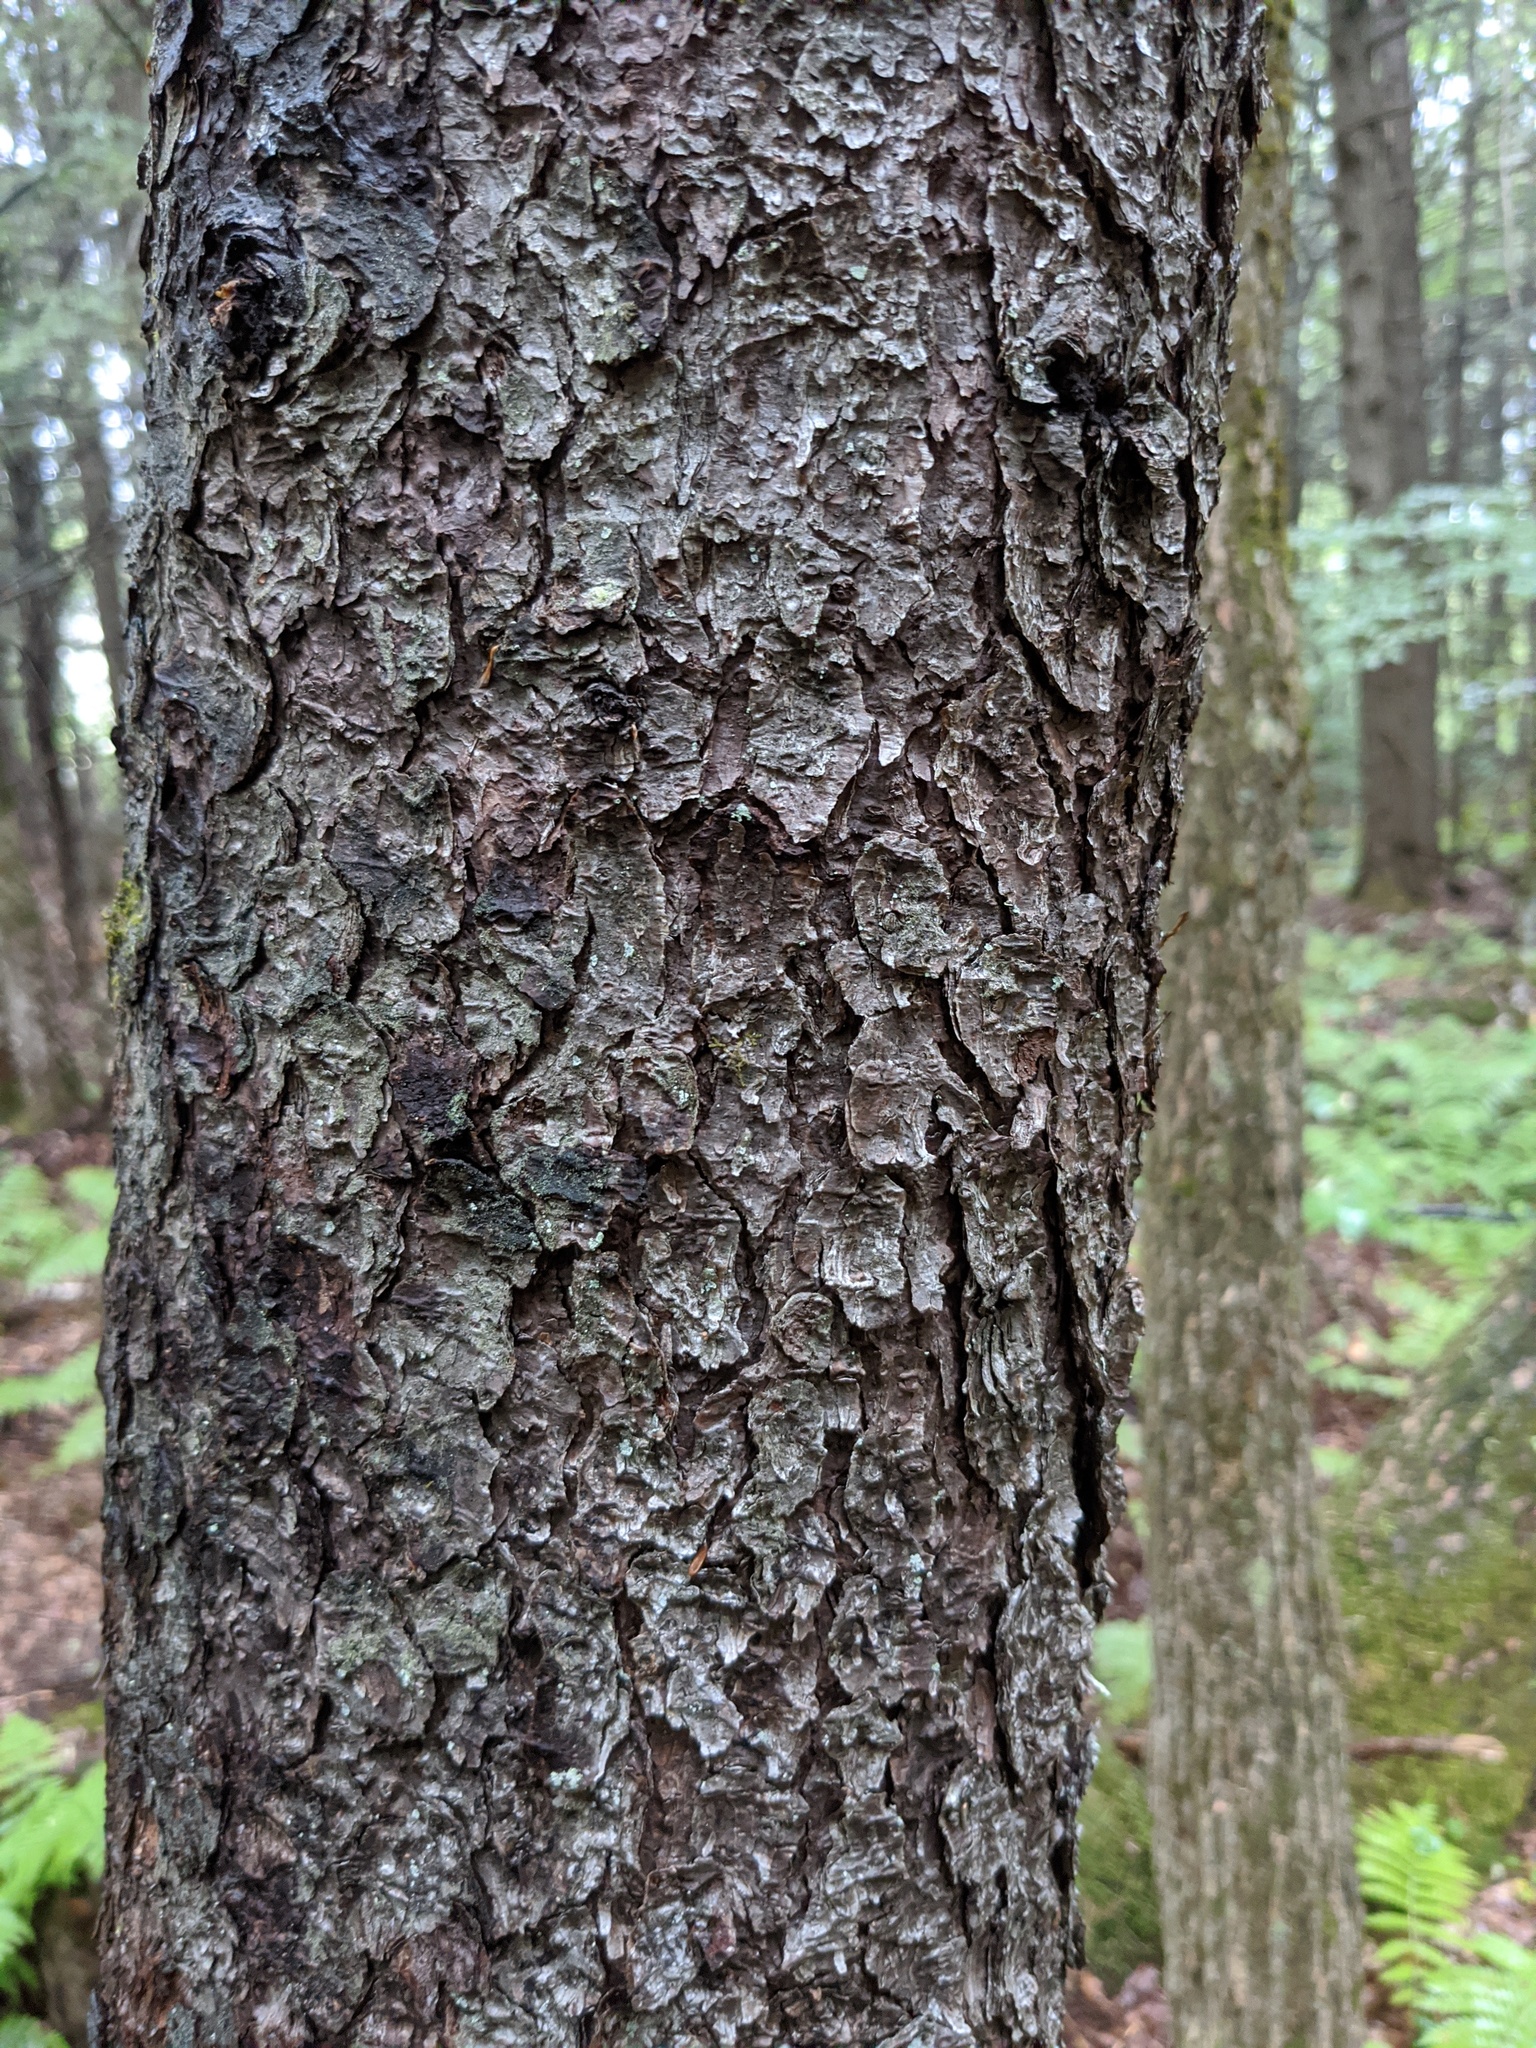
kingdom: Plantae
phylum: Tracheophyta
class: Pinopsida
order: Pinales
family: Pinaceae
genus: Picea
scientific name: Picea rubens
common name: Red spruce
